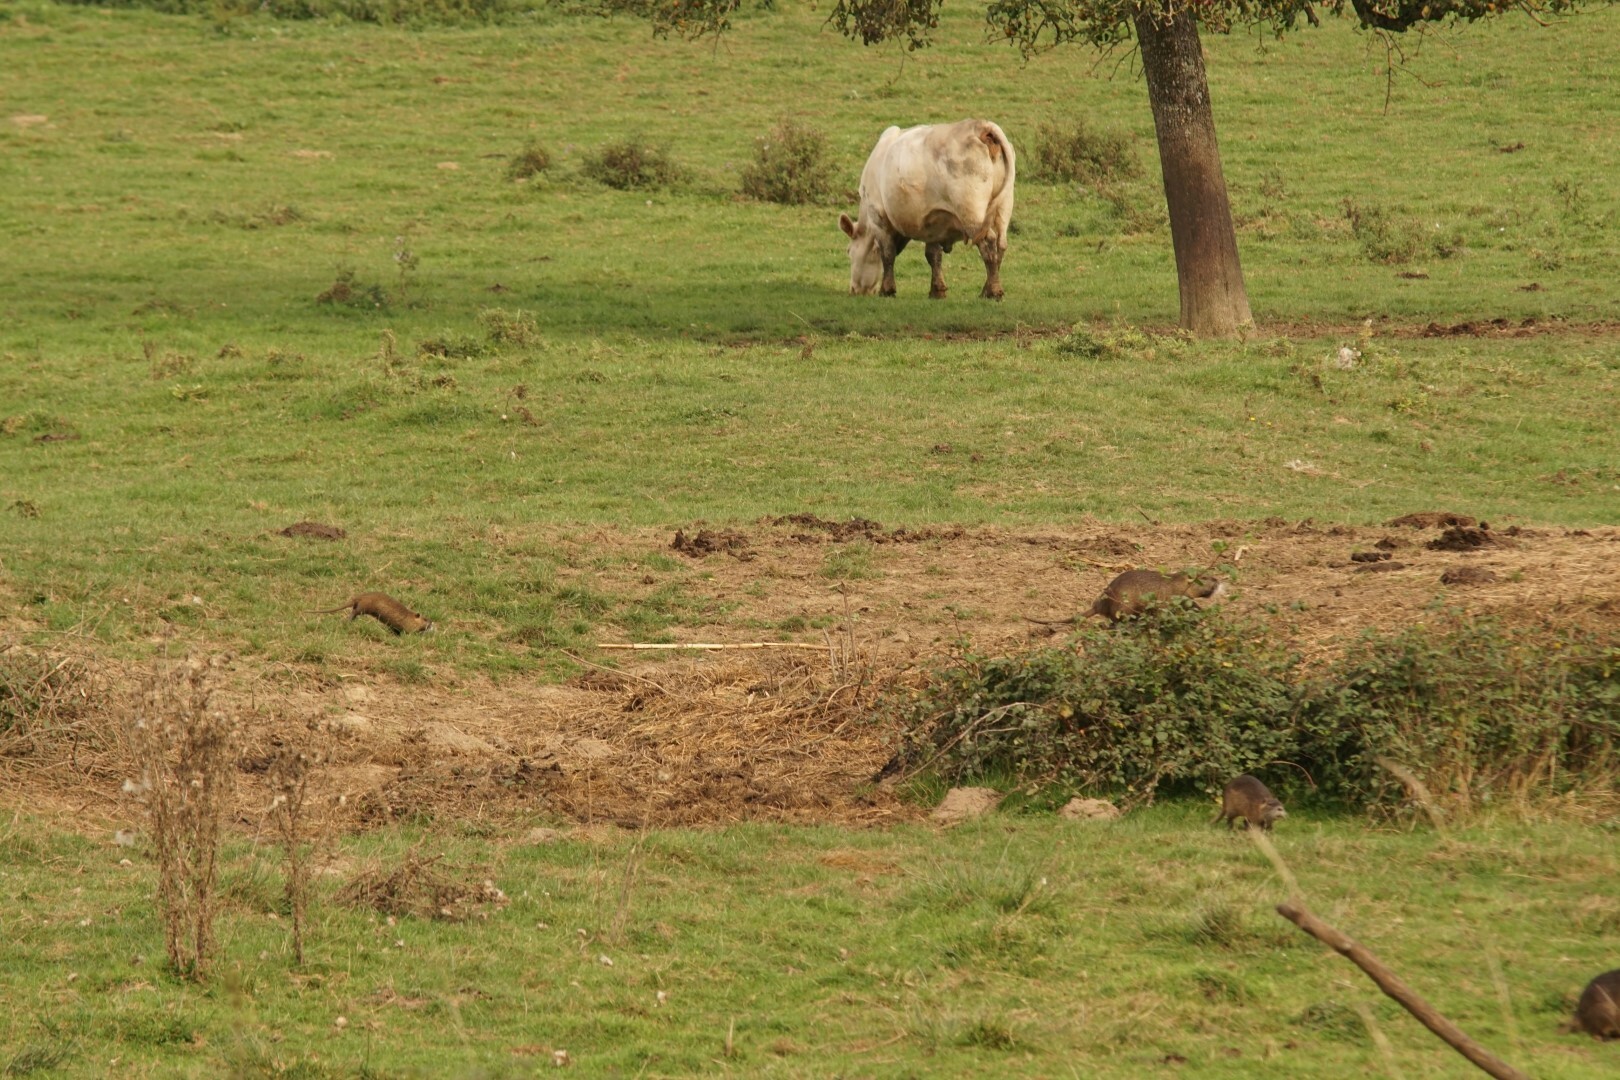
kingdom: Animalia
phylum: Chordata
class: Mammalia
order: Rodentia
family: Myocastoridae
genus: Myocastor
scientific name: Myocastor coypus
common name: Coypu
